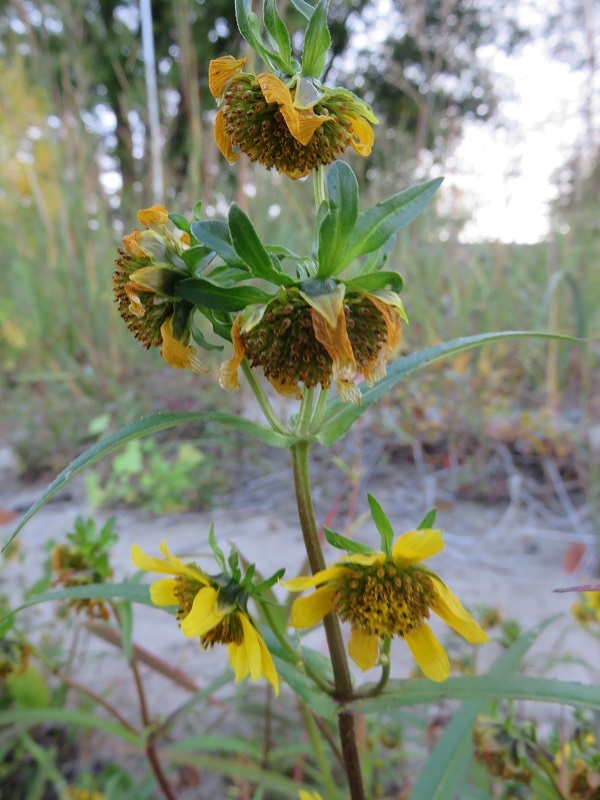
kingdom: Plantae
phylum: Tracheophyta
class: Magnoliopsida
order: Asterales
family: Asteraceae
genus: Bidens
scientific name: Bidens cernua
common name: Nodding bur-marigold
